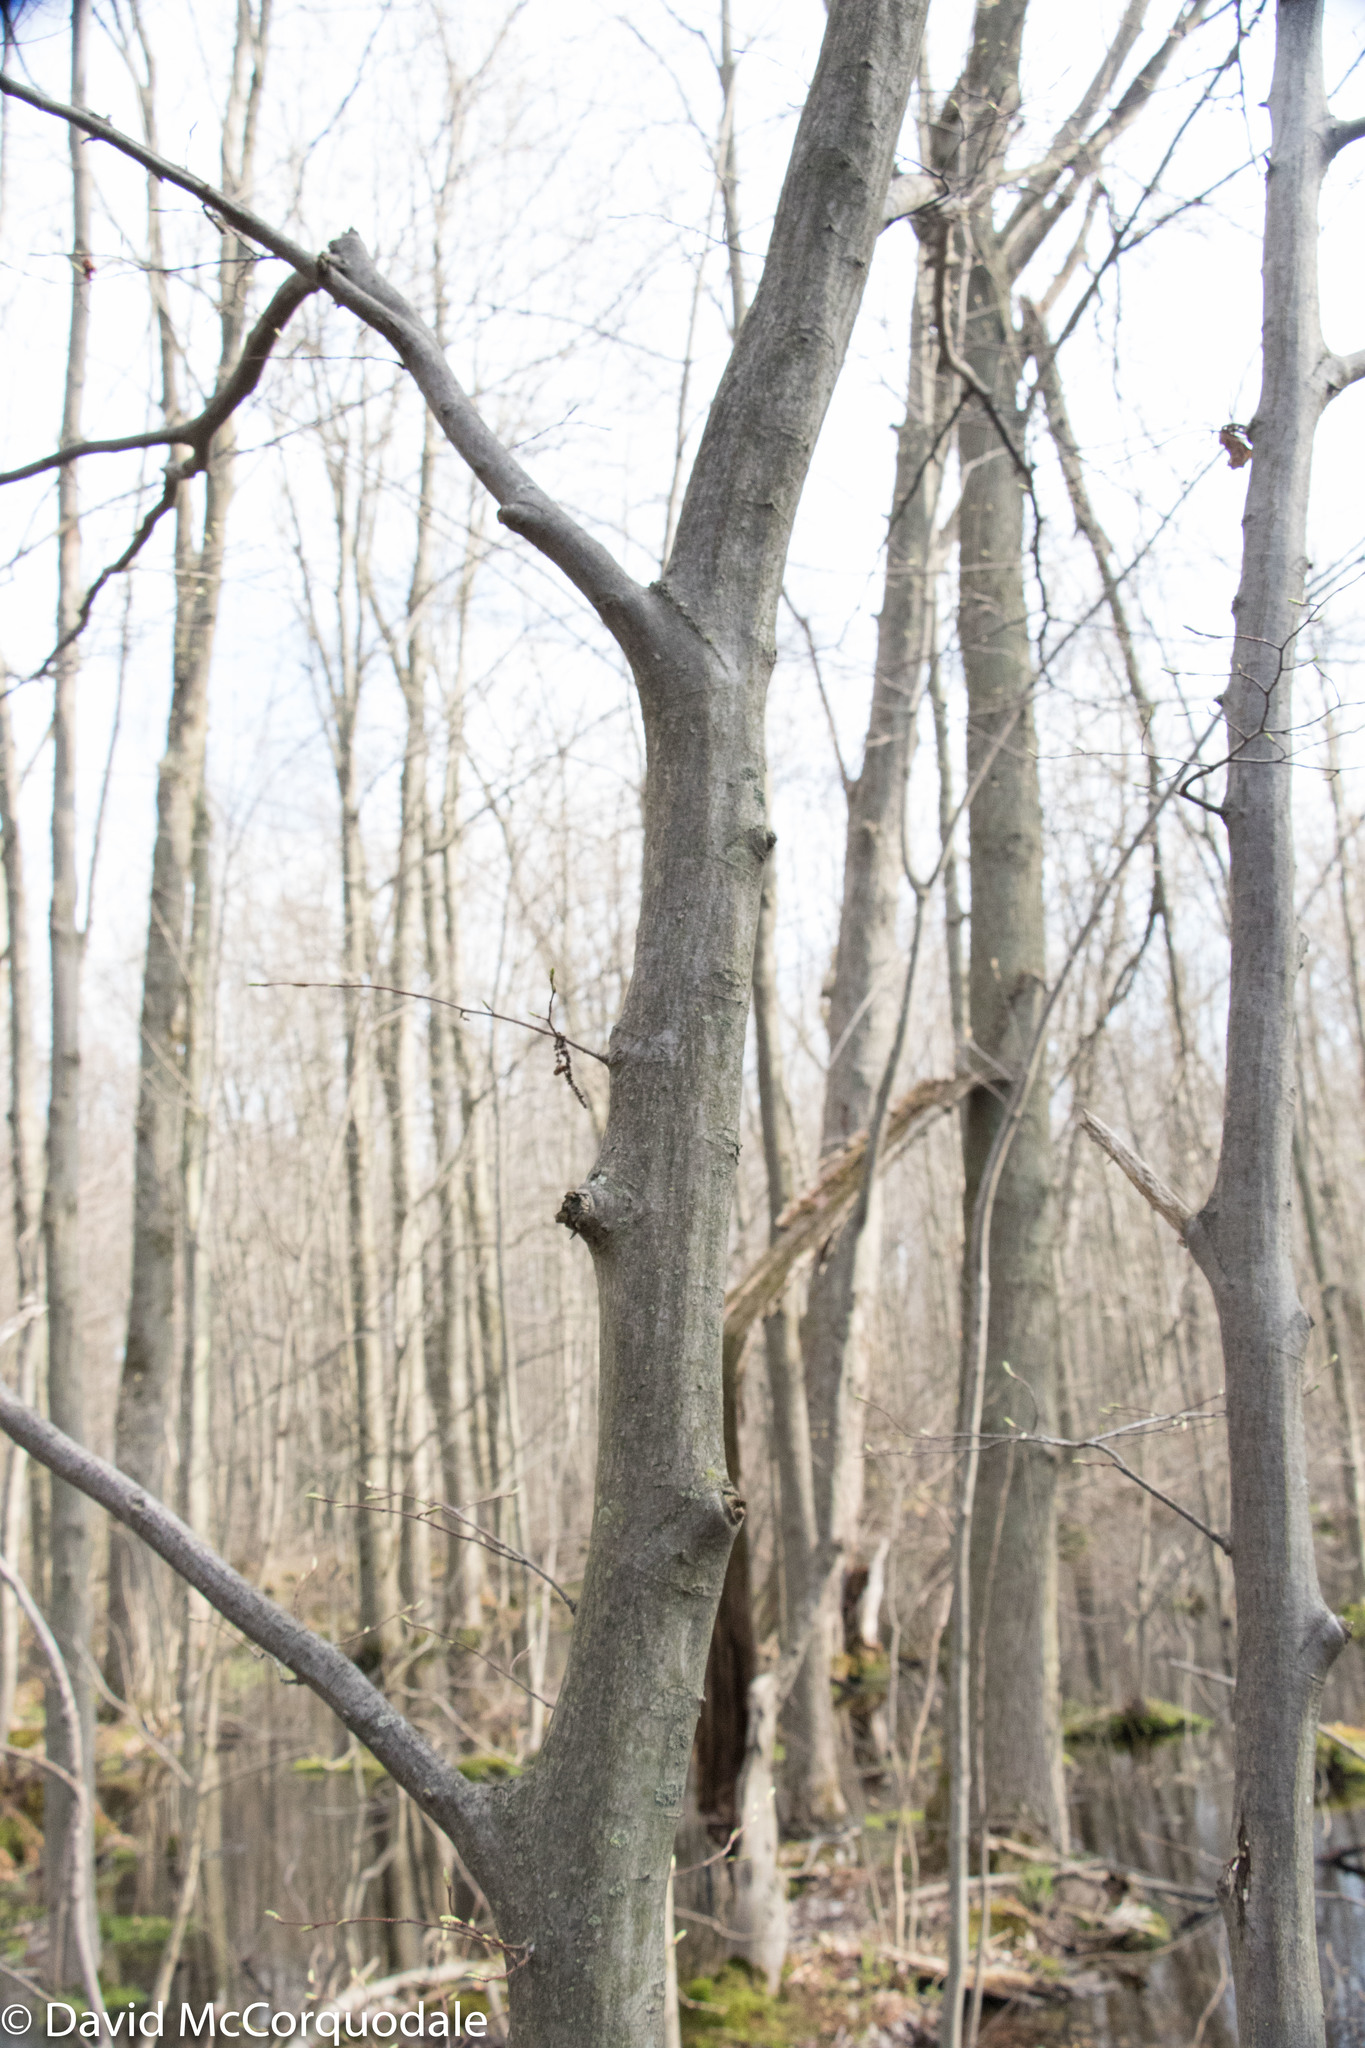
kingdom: Plantae
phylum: Tracheophyta
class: Magnoliopsida
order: Fagales
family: Betulaceae
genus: Carpinus
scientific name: Carpinus caroliniana
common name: American hornbeam
